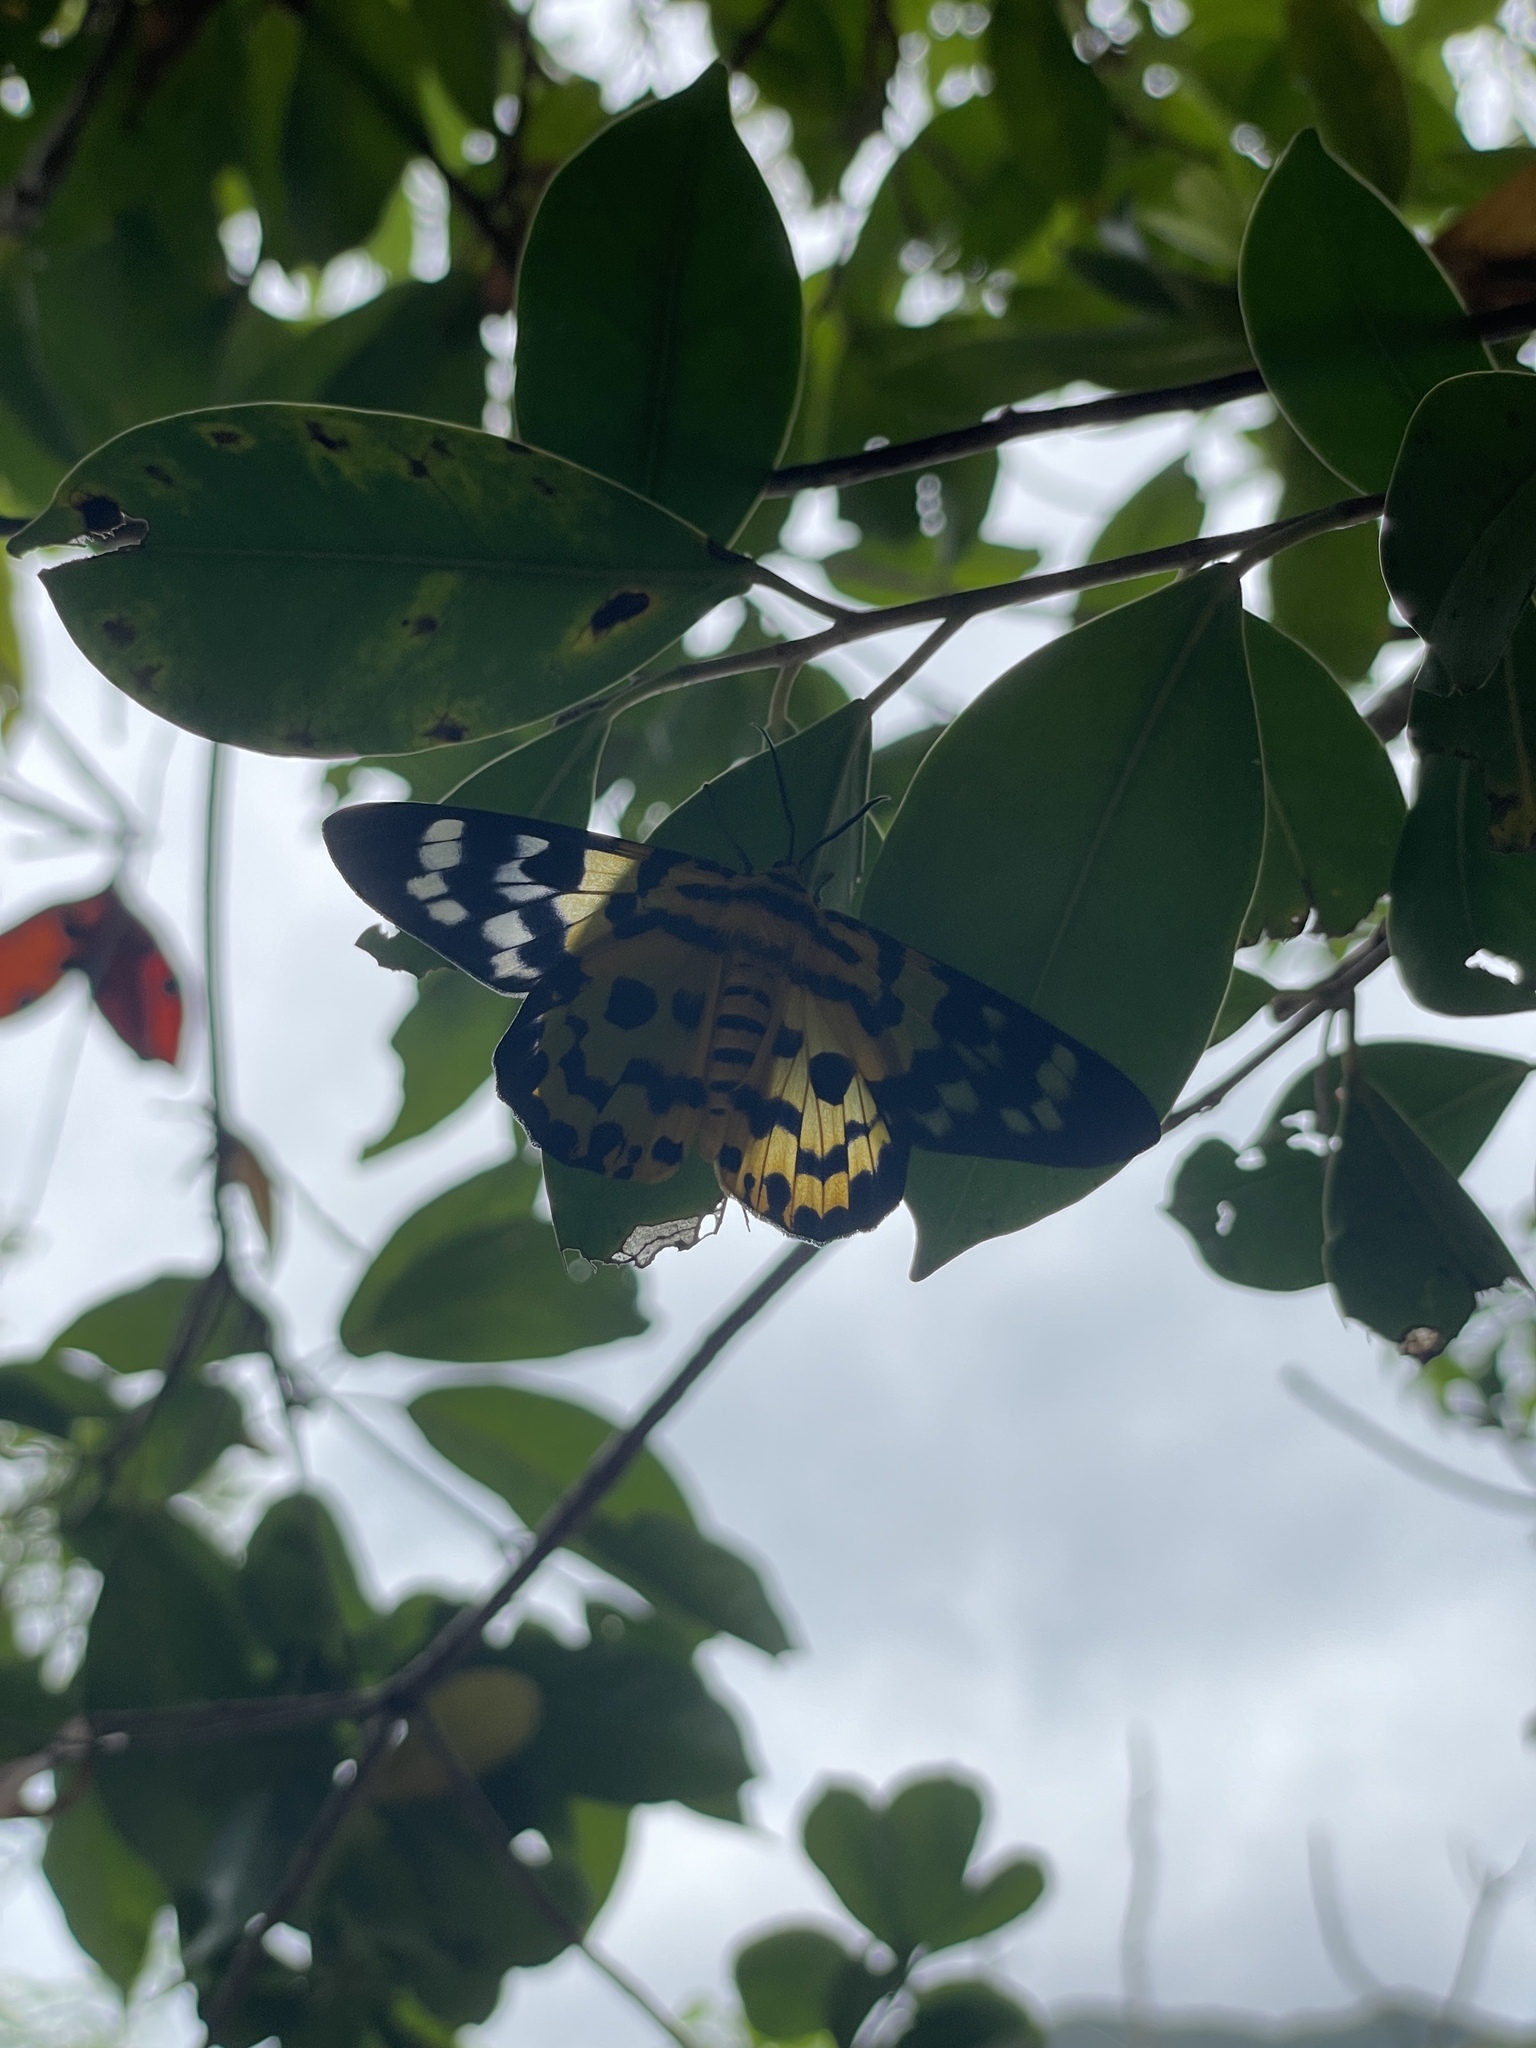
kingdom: Animalia
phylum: Arthropoda
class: Insecta
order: Lepidoptera
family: Geometridae
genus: Dysphania
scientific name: Dysphania militaris
